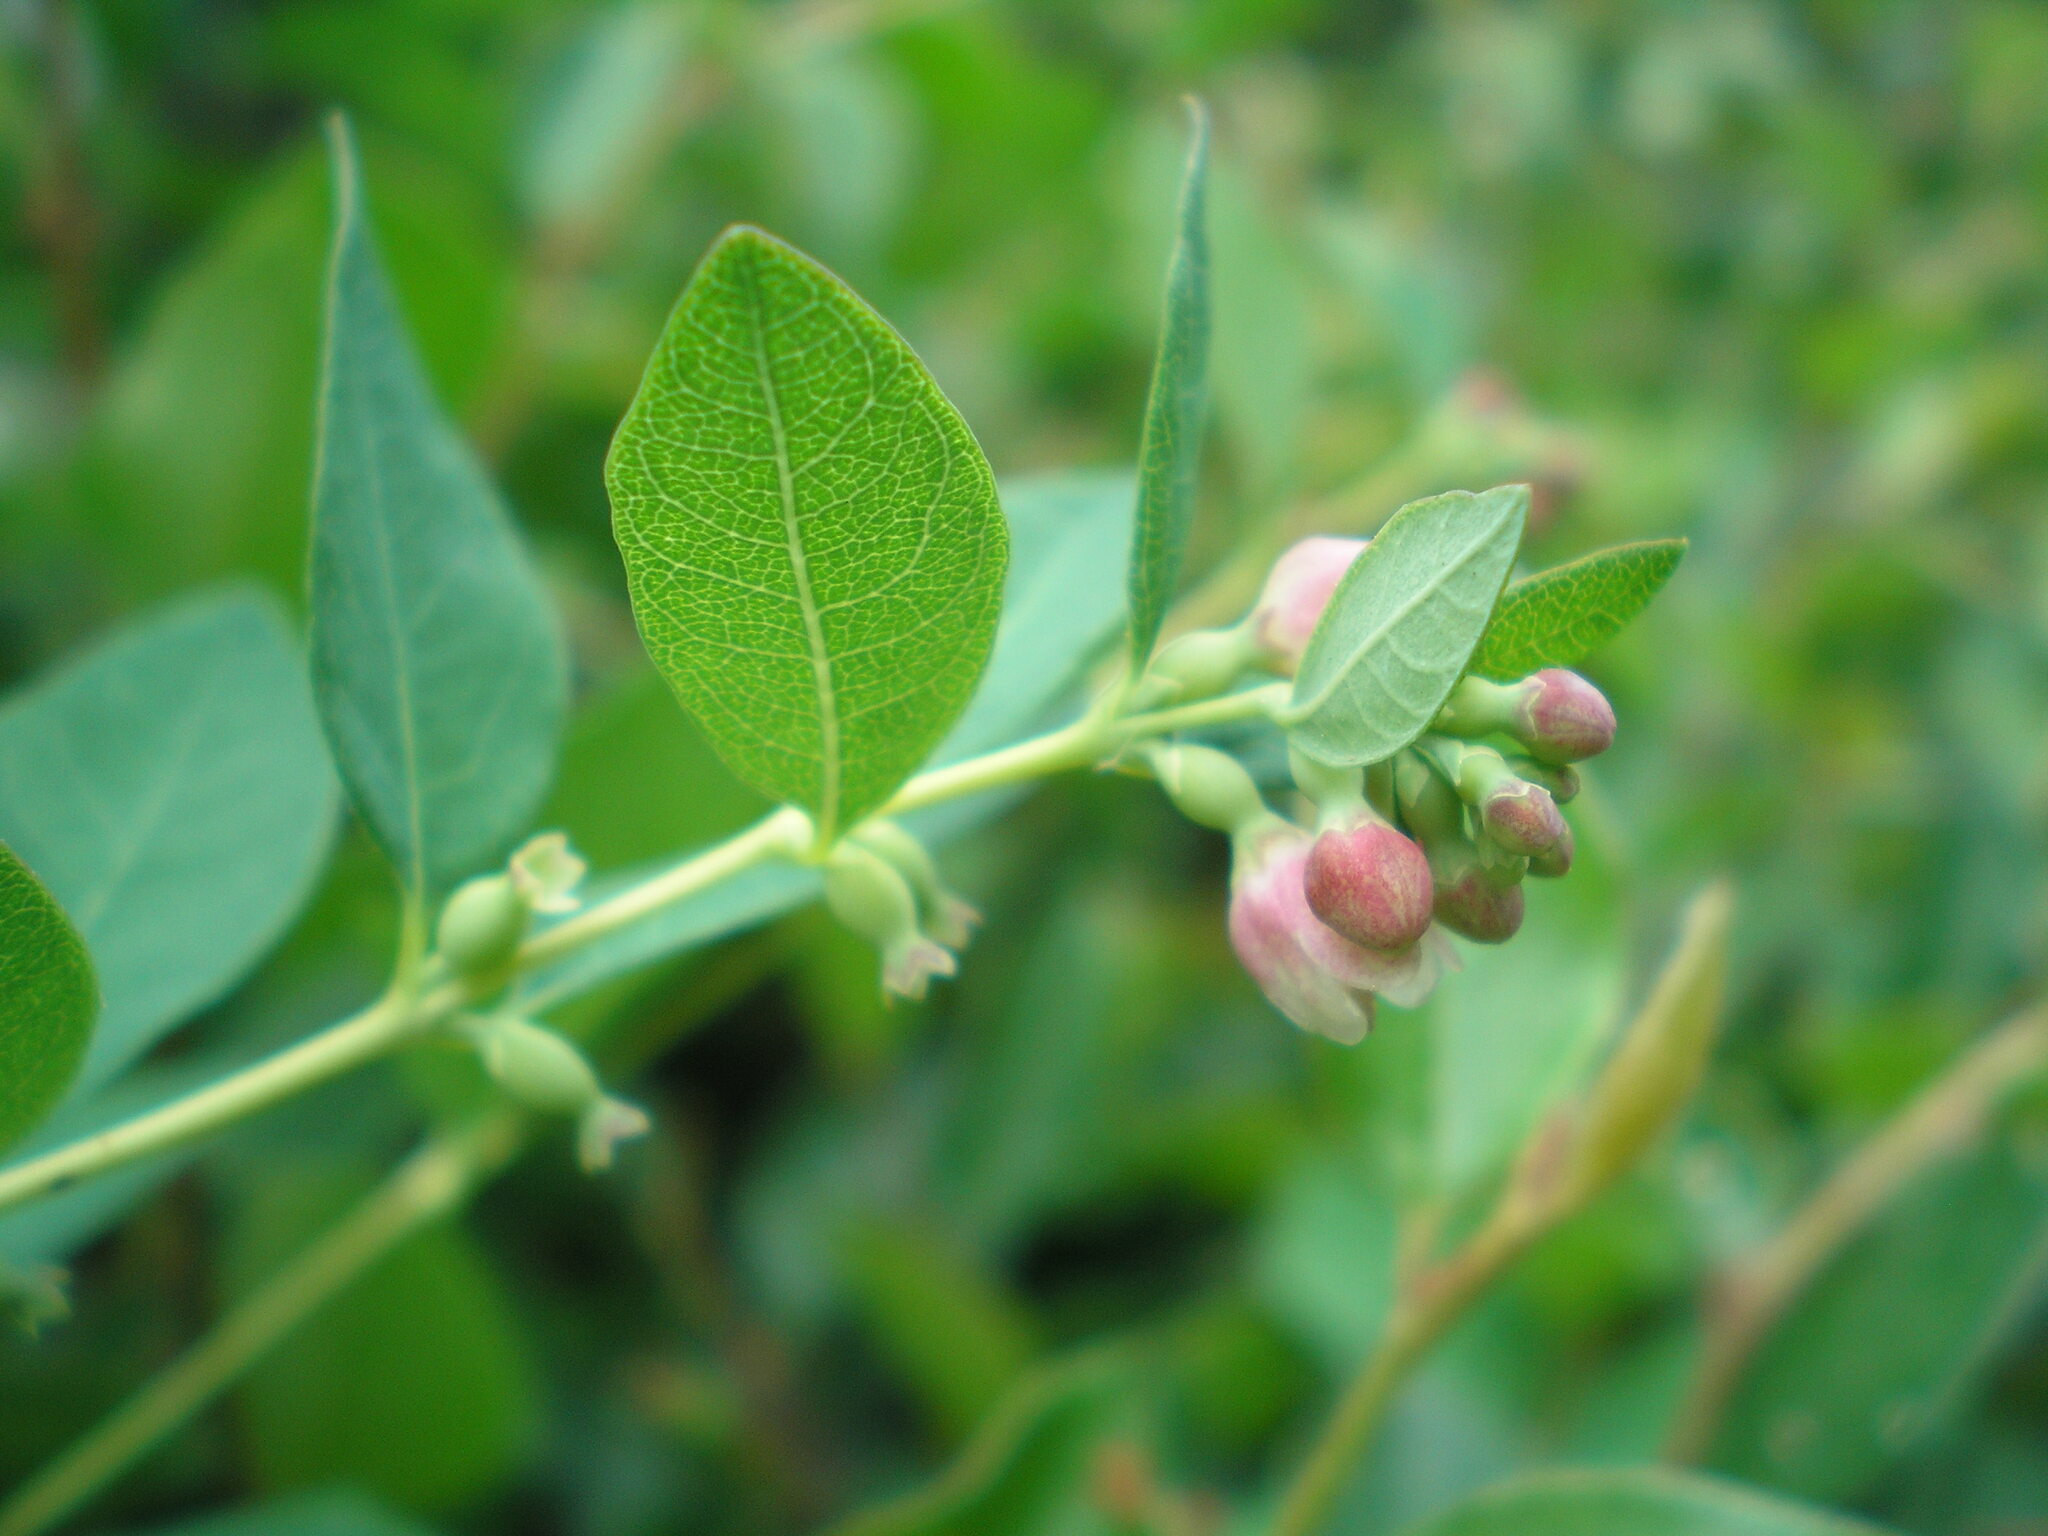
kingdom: Plantae
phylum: Tracheophyta
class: Magnoliopsida
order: Dipsacales
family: Caprifoliaceae
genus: Symphoricarpos
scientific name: Symphoricarpos albus
